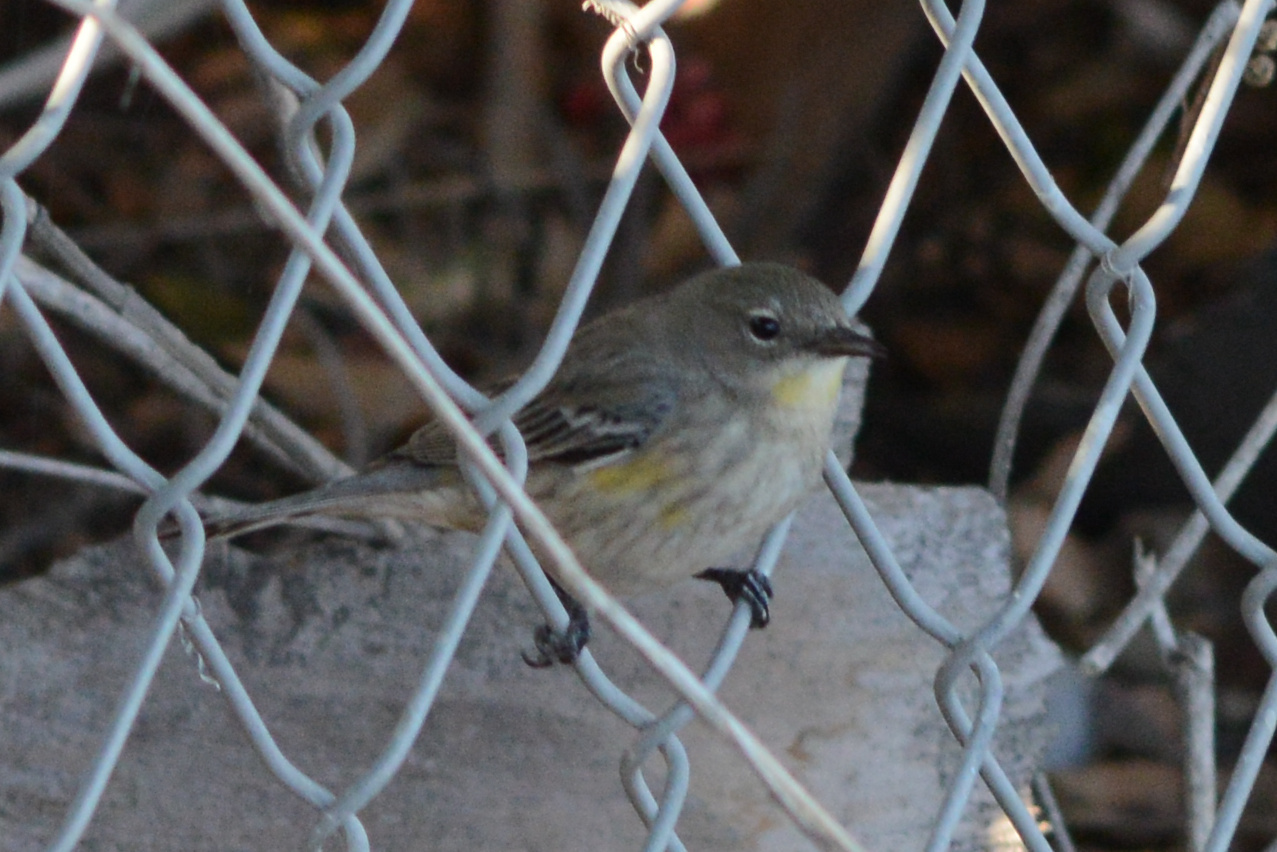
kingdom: Animalia
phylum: Chordata
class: Aves
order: Passeriformes
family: Parulidae
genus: Setophaga
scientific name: Setophaga auduboni
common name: Audubon's warbler
